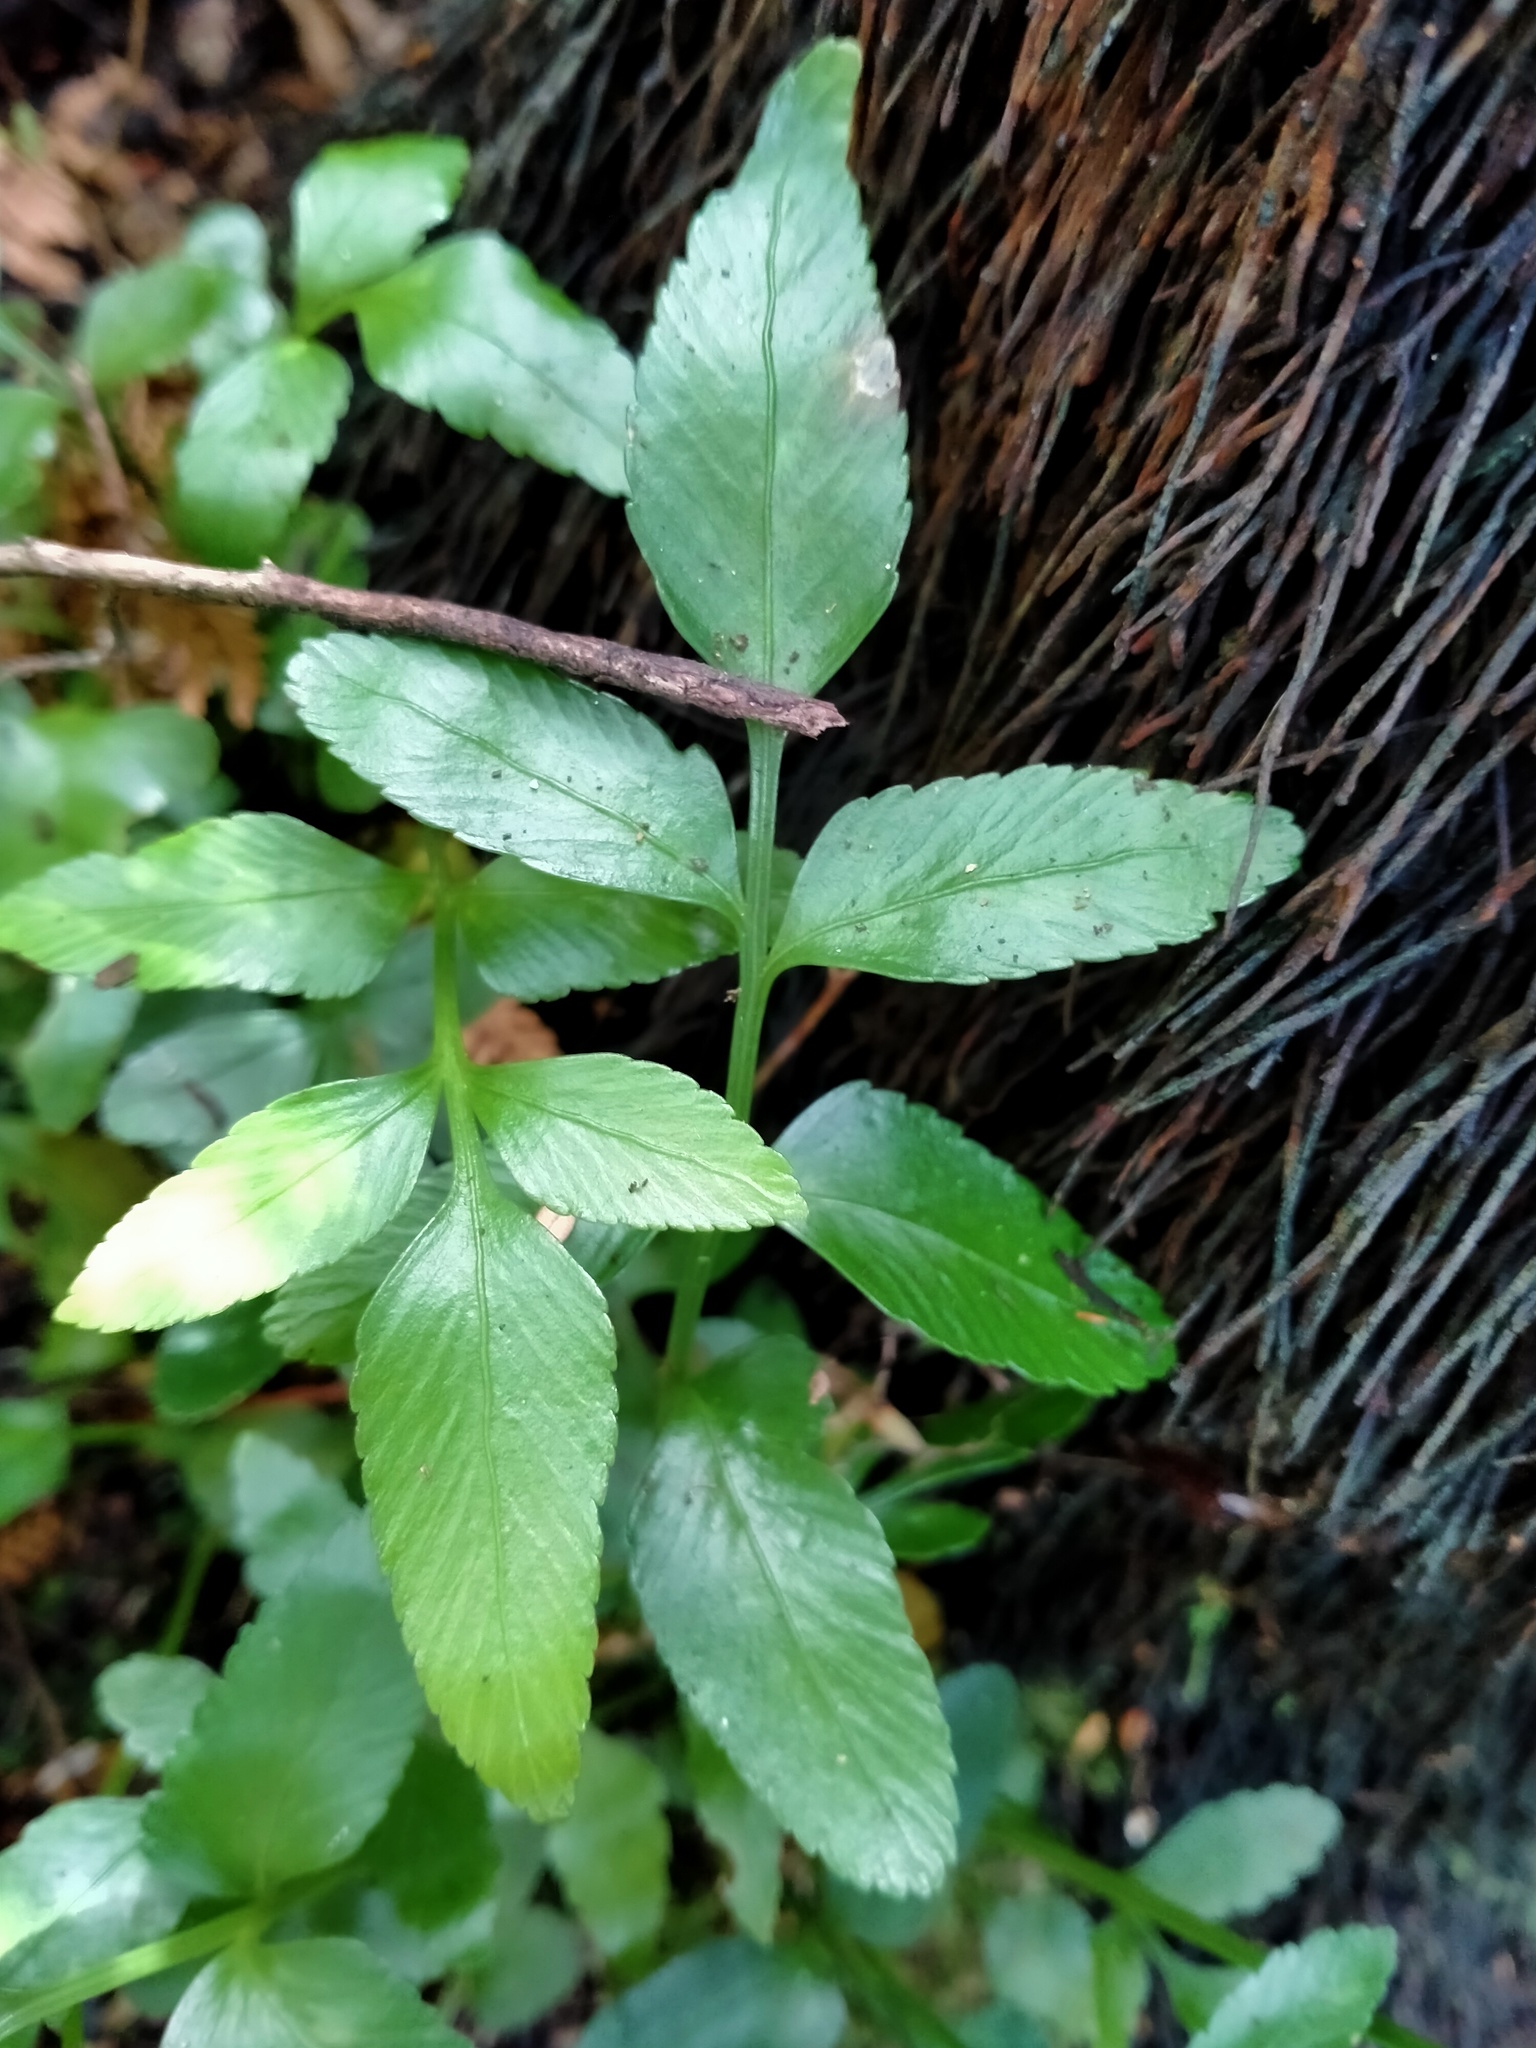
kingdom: Plantae
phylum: Tracheophyta
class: Polypodiopsida
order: Polypodiales
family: Aspleniaceae
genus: Asplenium
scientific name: Asplenium obtusatum
